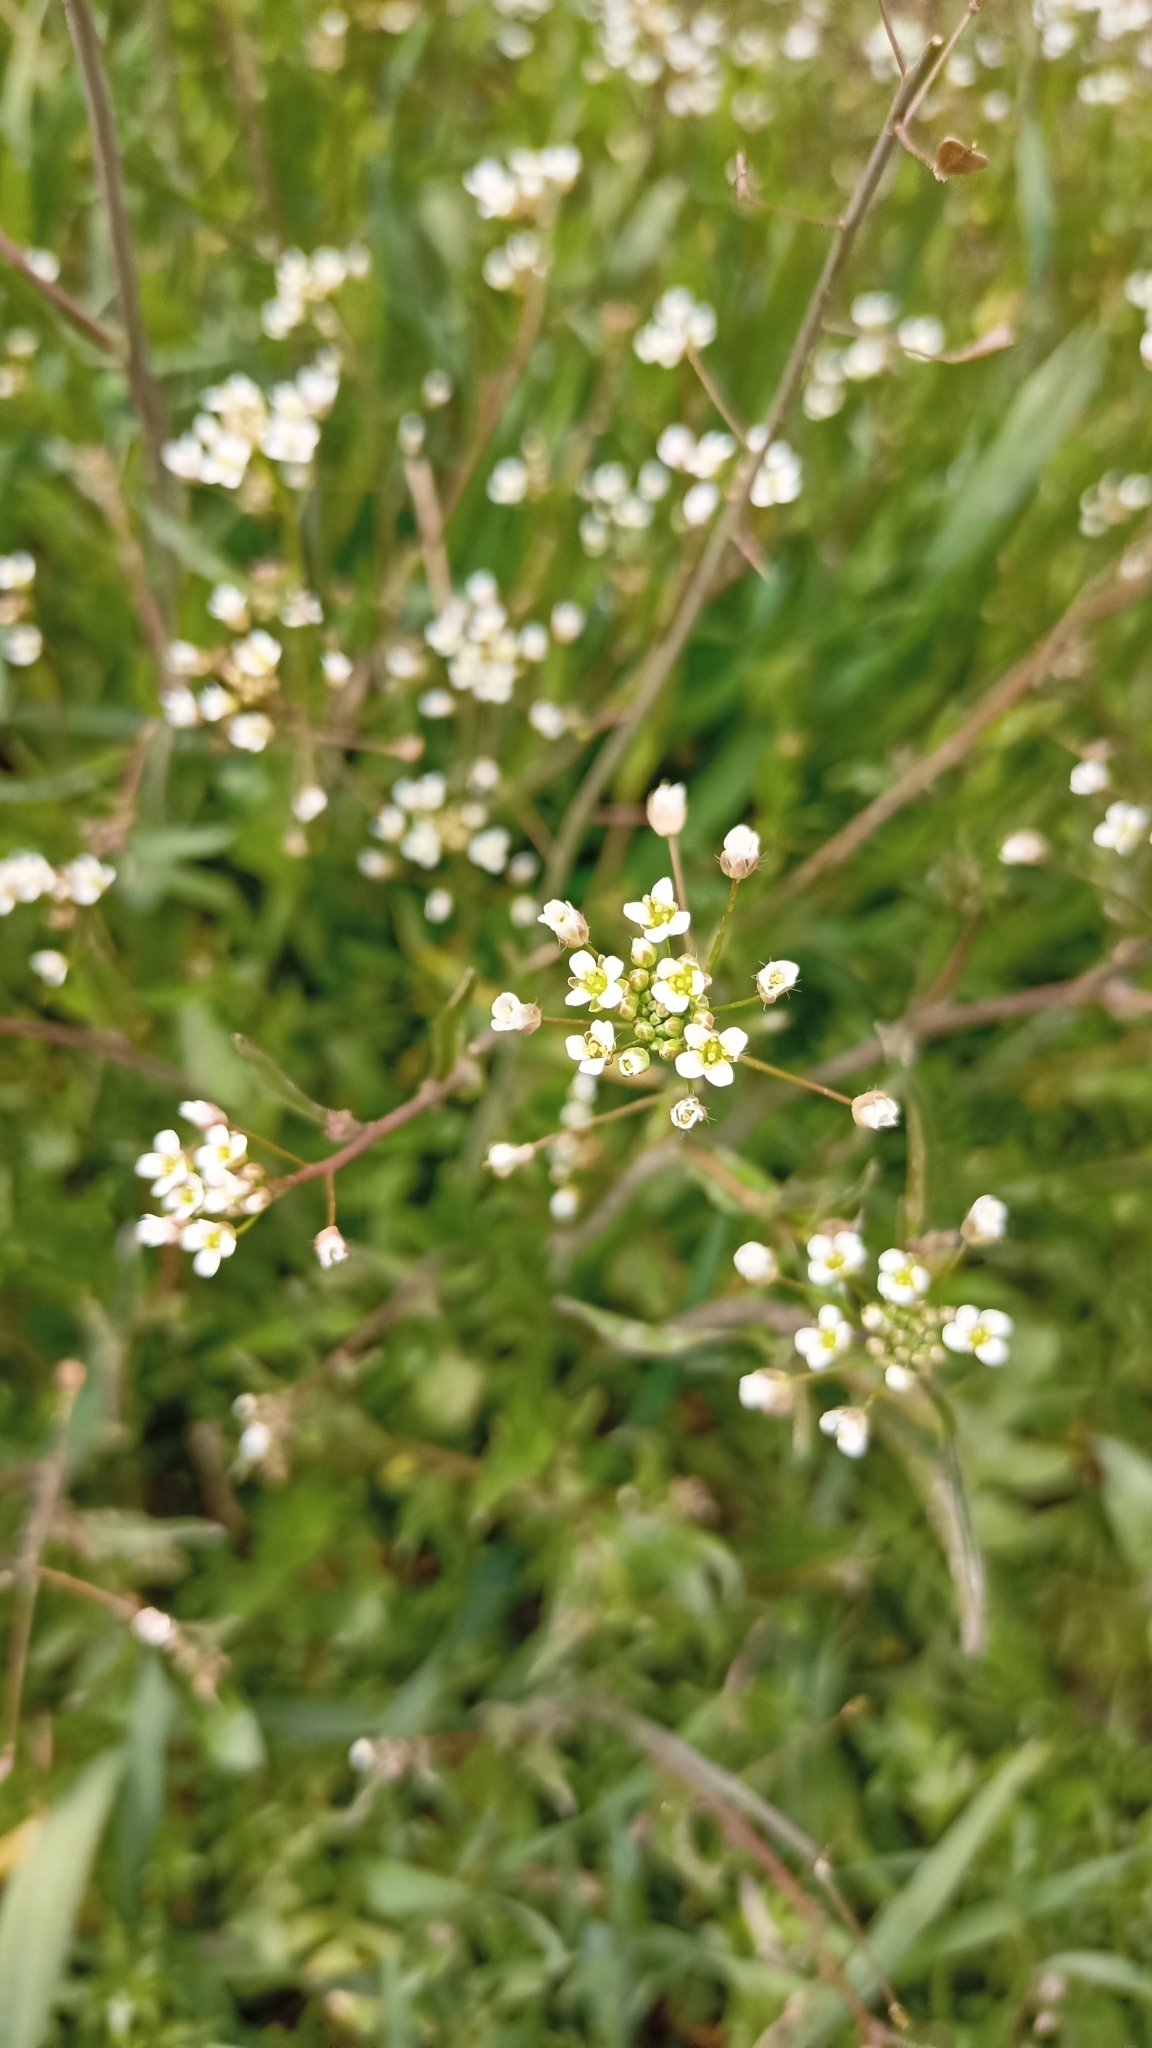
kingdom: Plantae
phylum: Tracheophyta
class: Magnoliopsida
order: Brassicales
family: Brassicaceae
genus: Capsella
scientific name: Capsella bursa-pastoris
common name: Shepherd's purse
